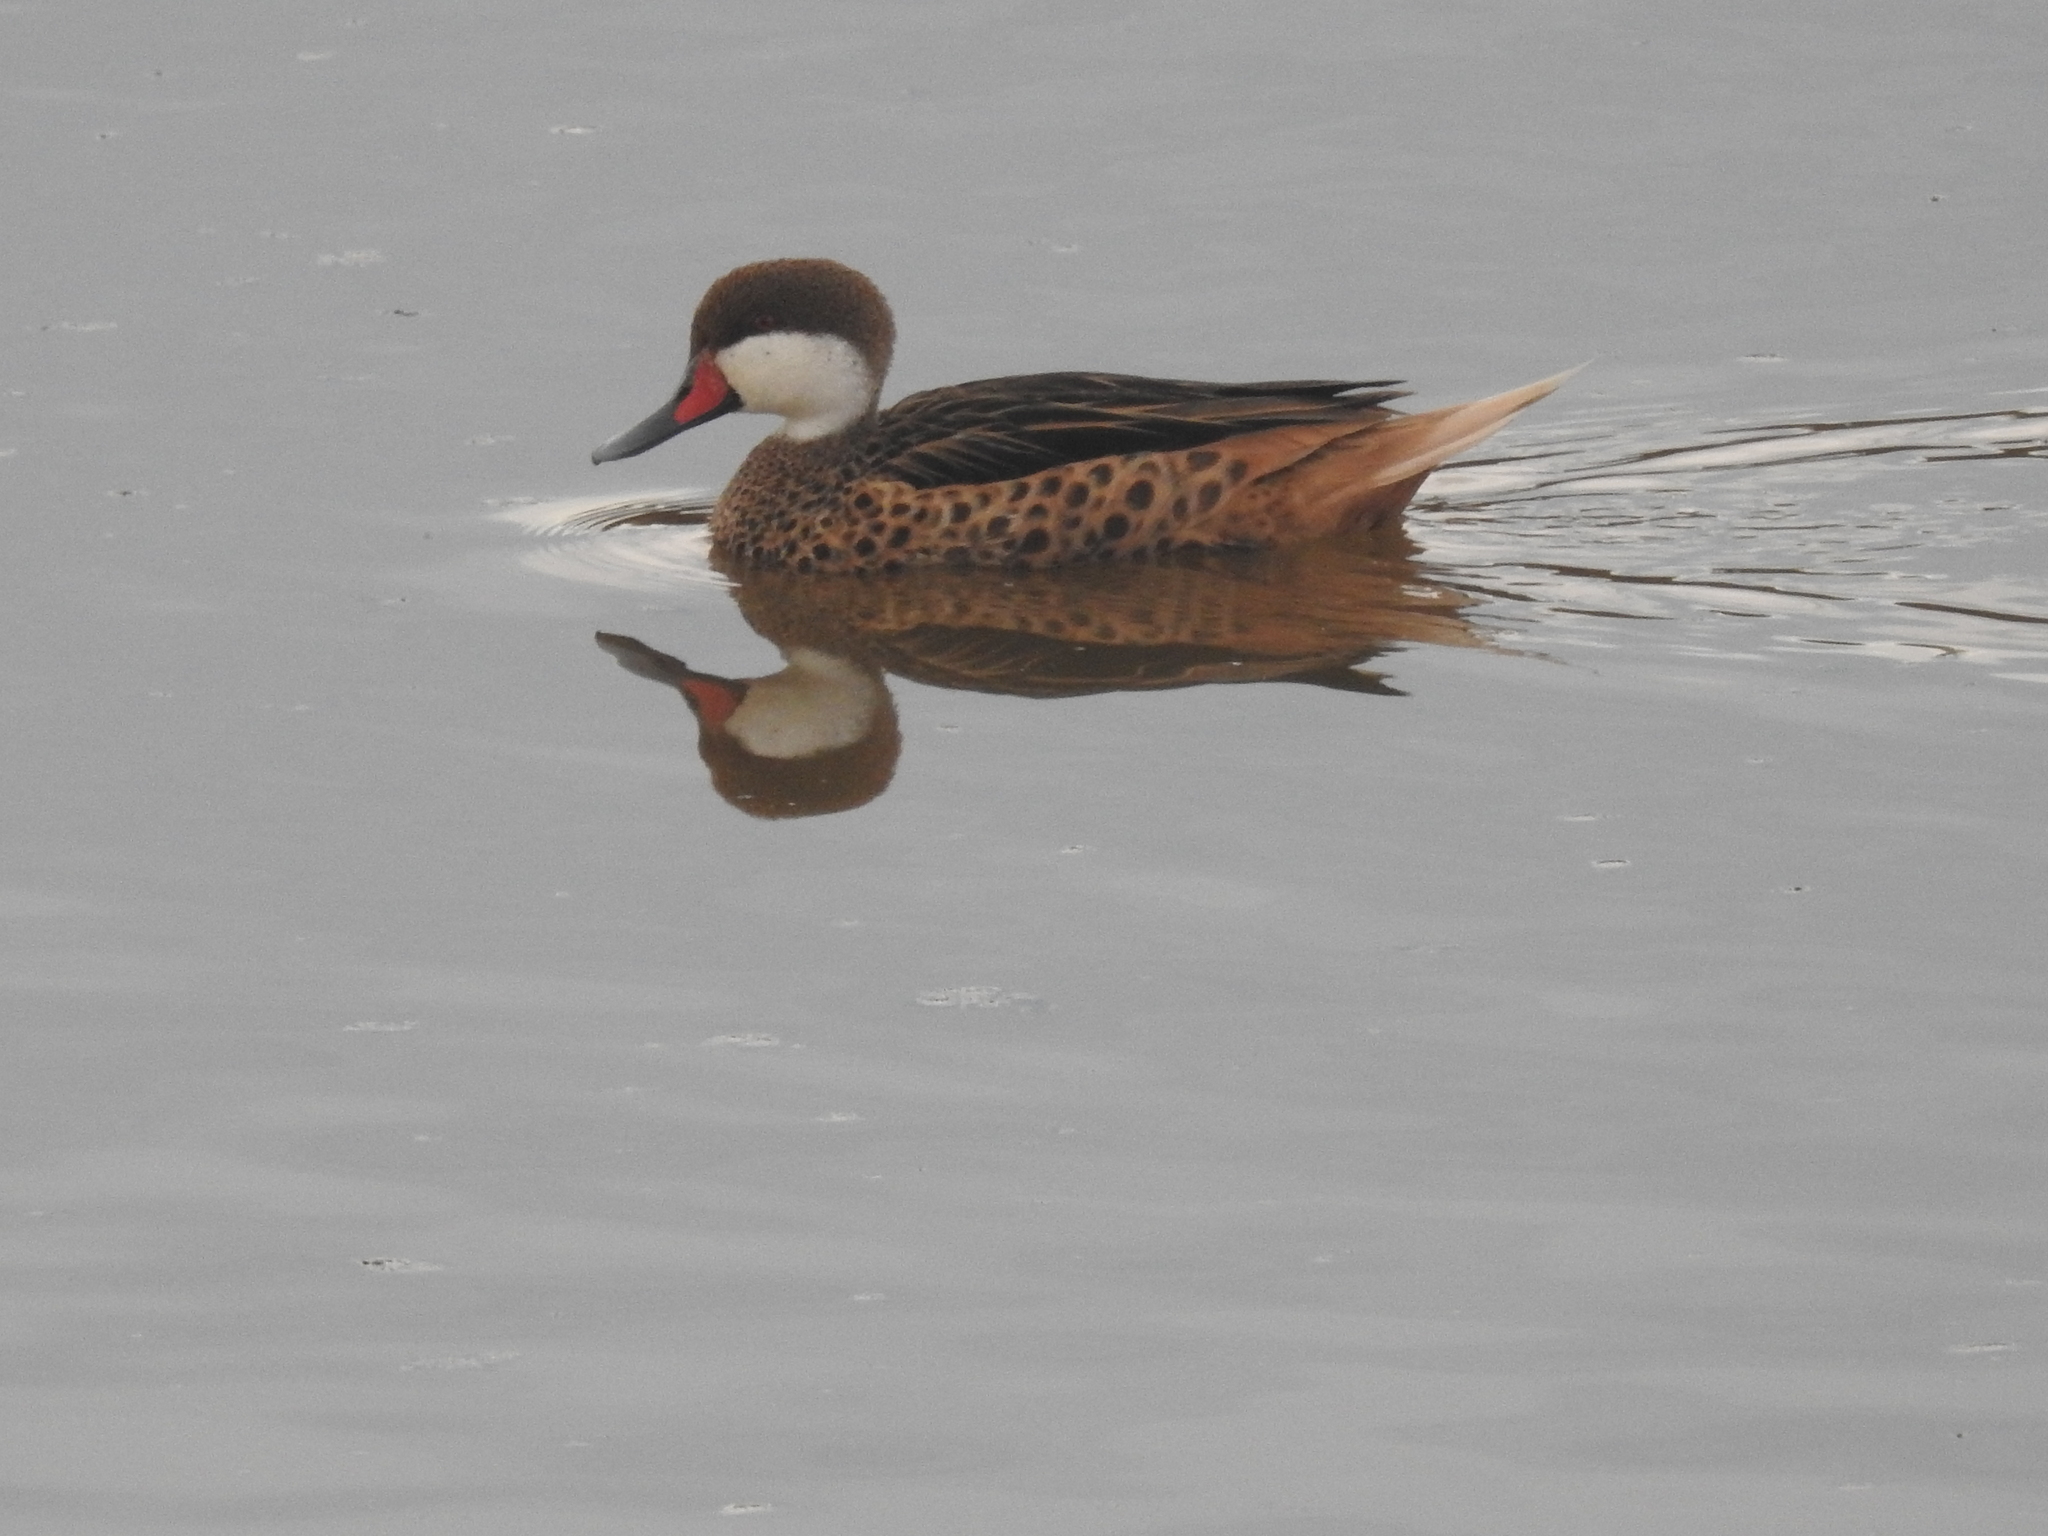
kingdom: Animalia
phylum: Chordata
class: Aves
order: Anseriformes
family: Anatidae
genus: Anas
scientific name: Anas bahamensis
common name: White-cheeked pintail
